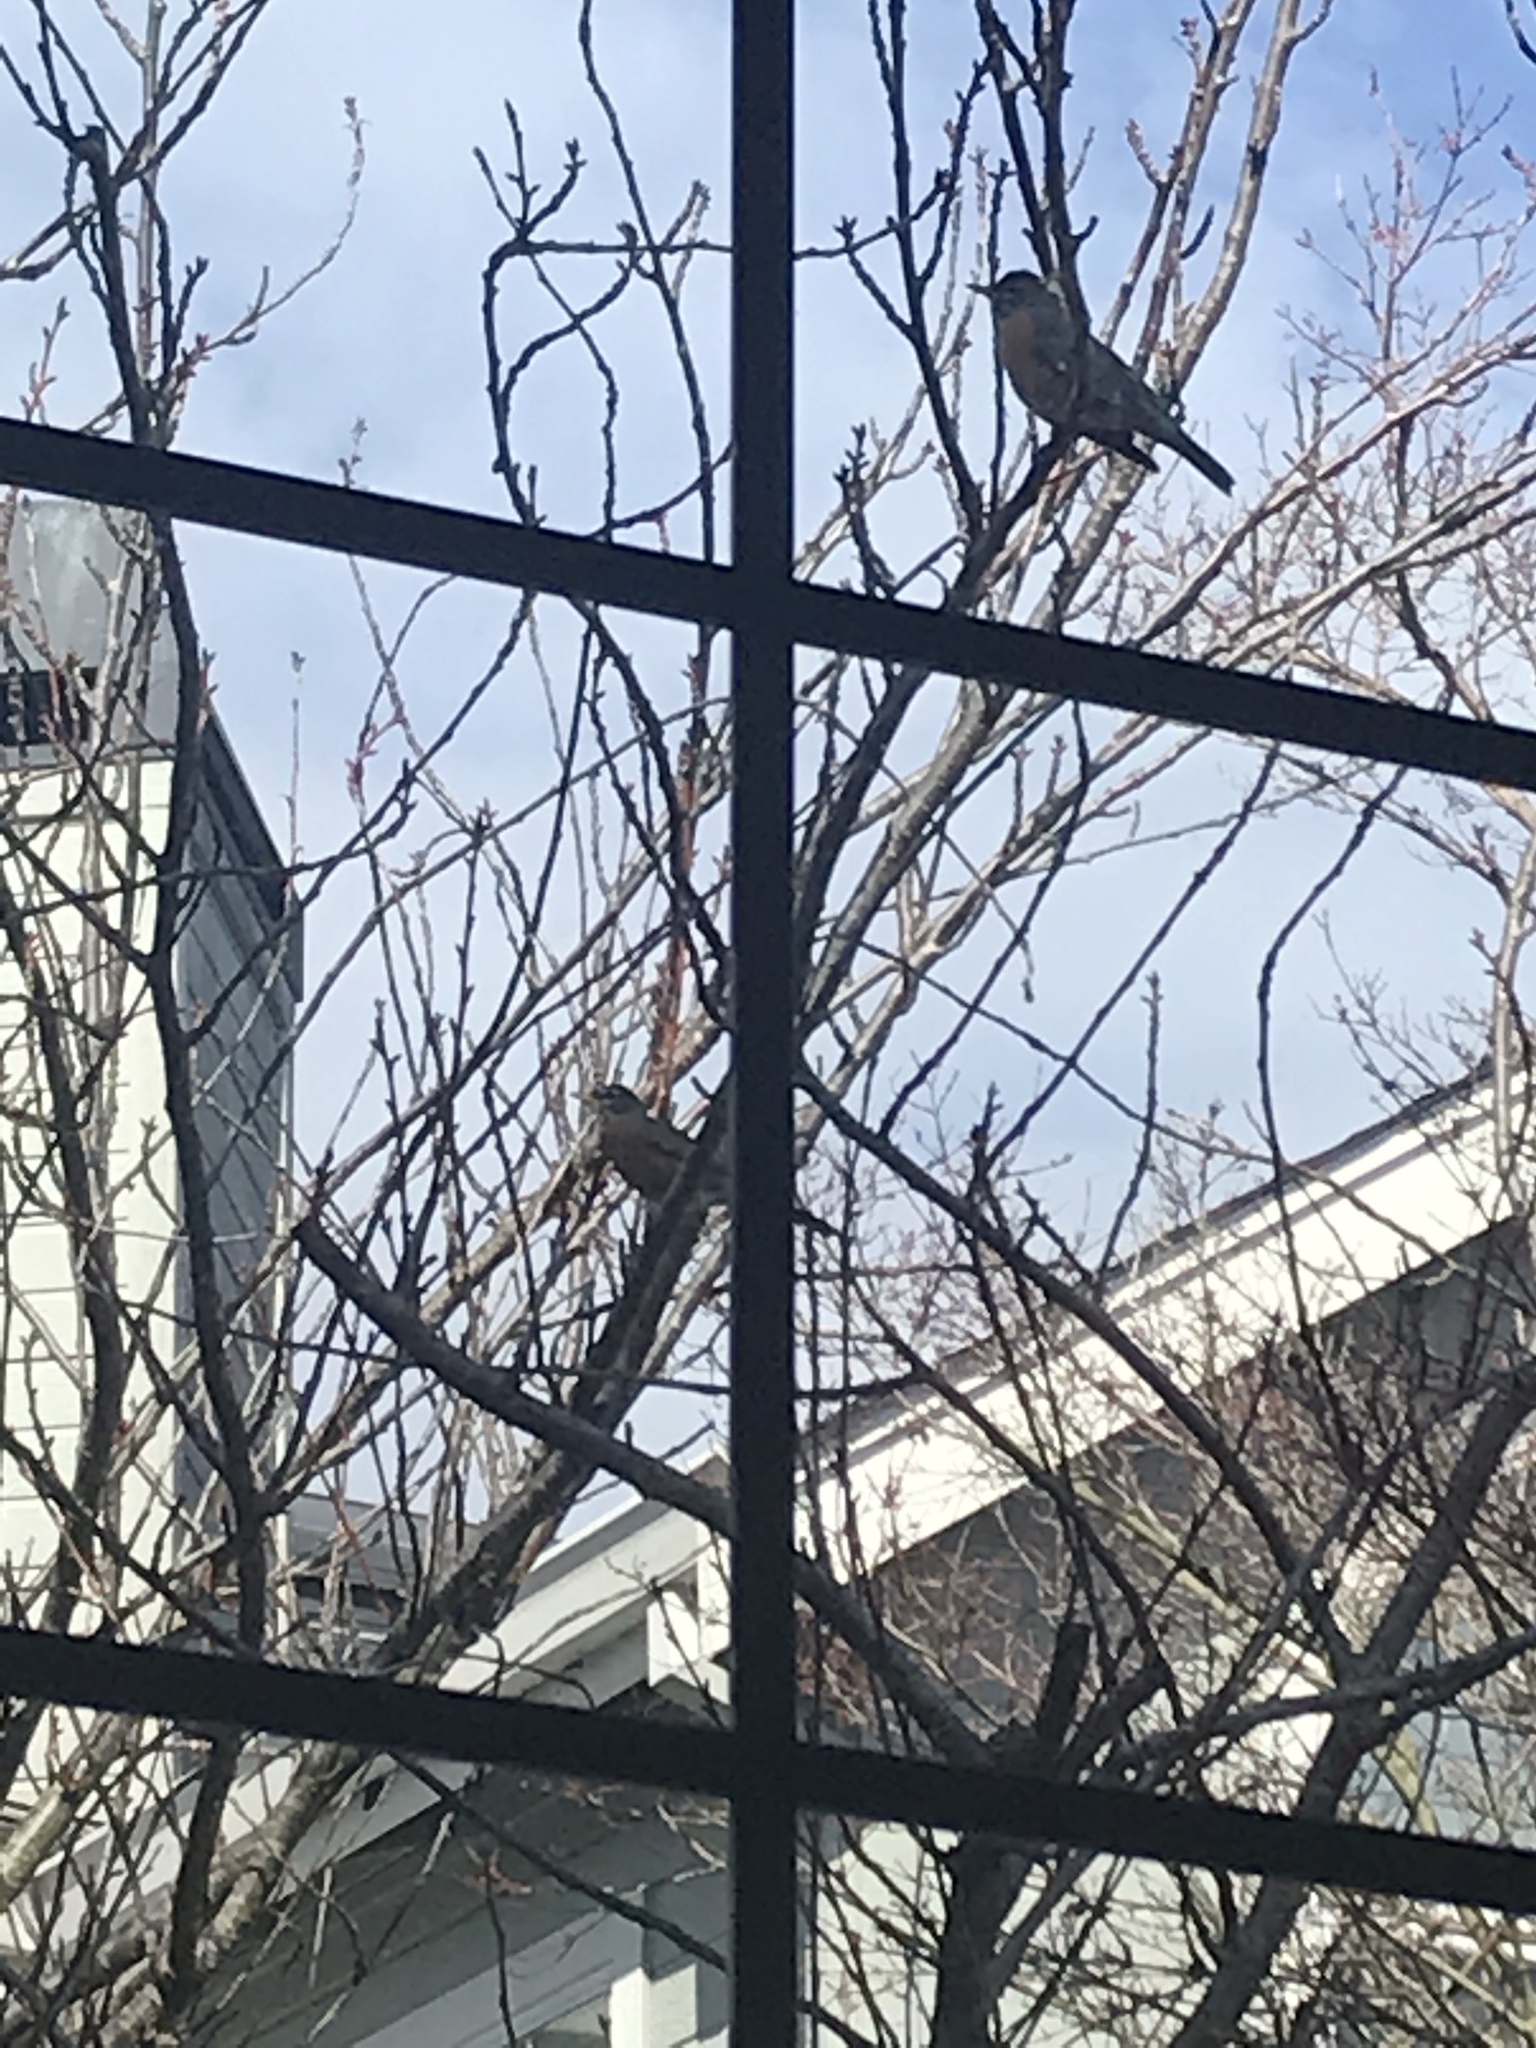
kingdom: Animalia
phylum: Chordata
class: Aves
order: Passeriformes
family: Turdidae
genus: Turdus
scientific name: Turdus migratorius
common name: American robin
